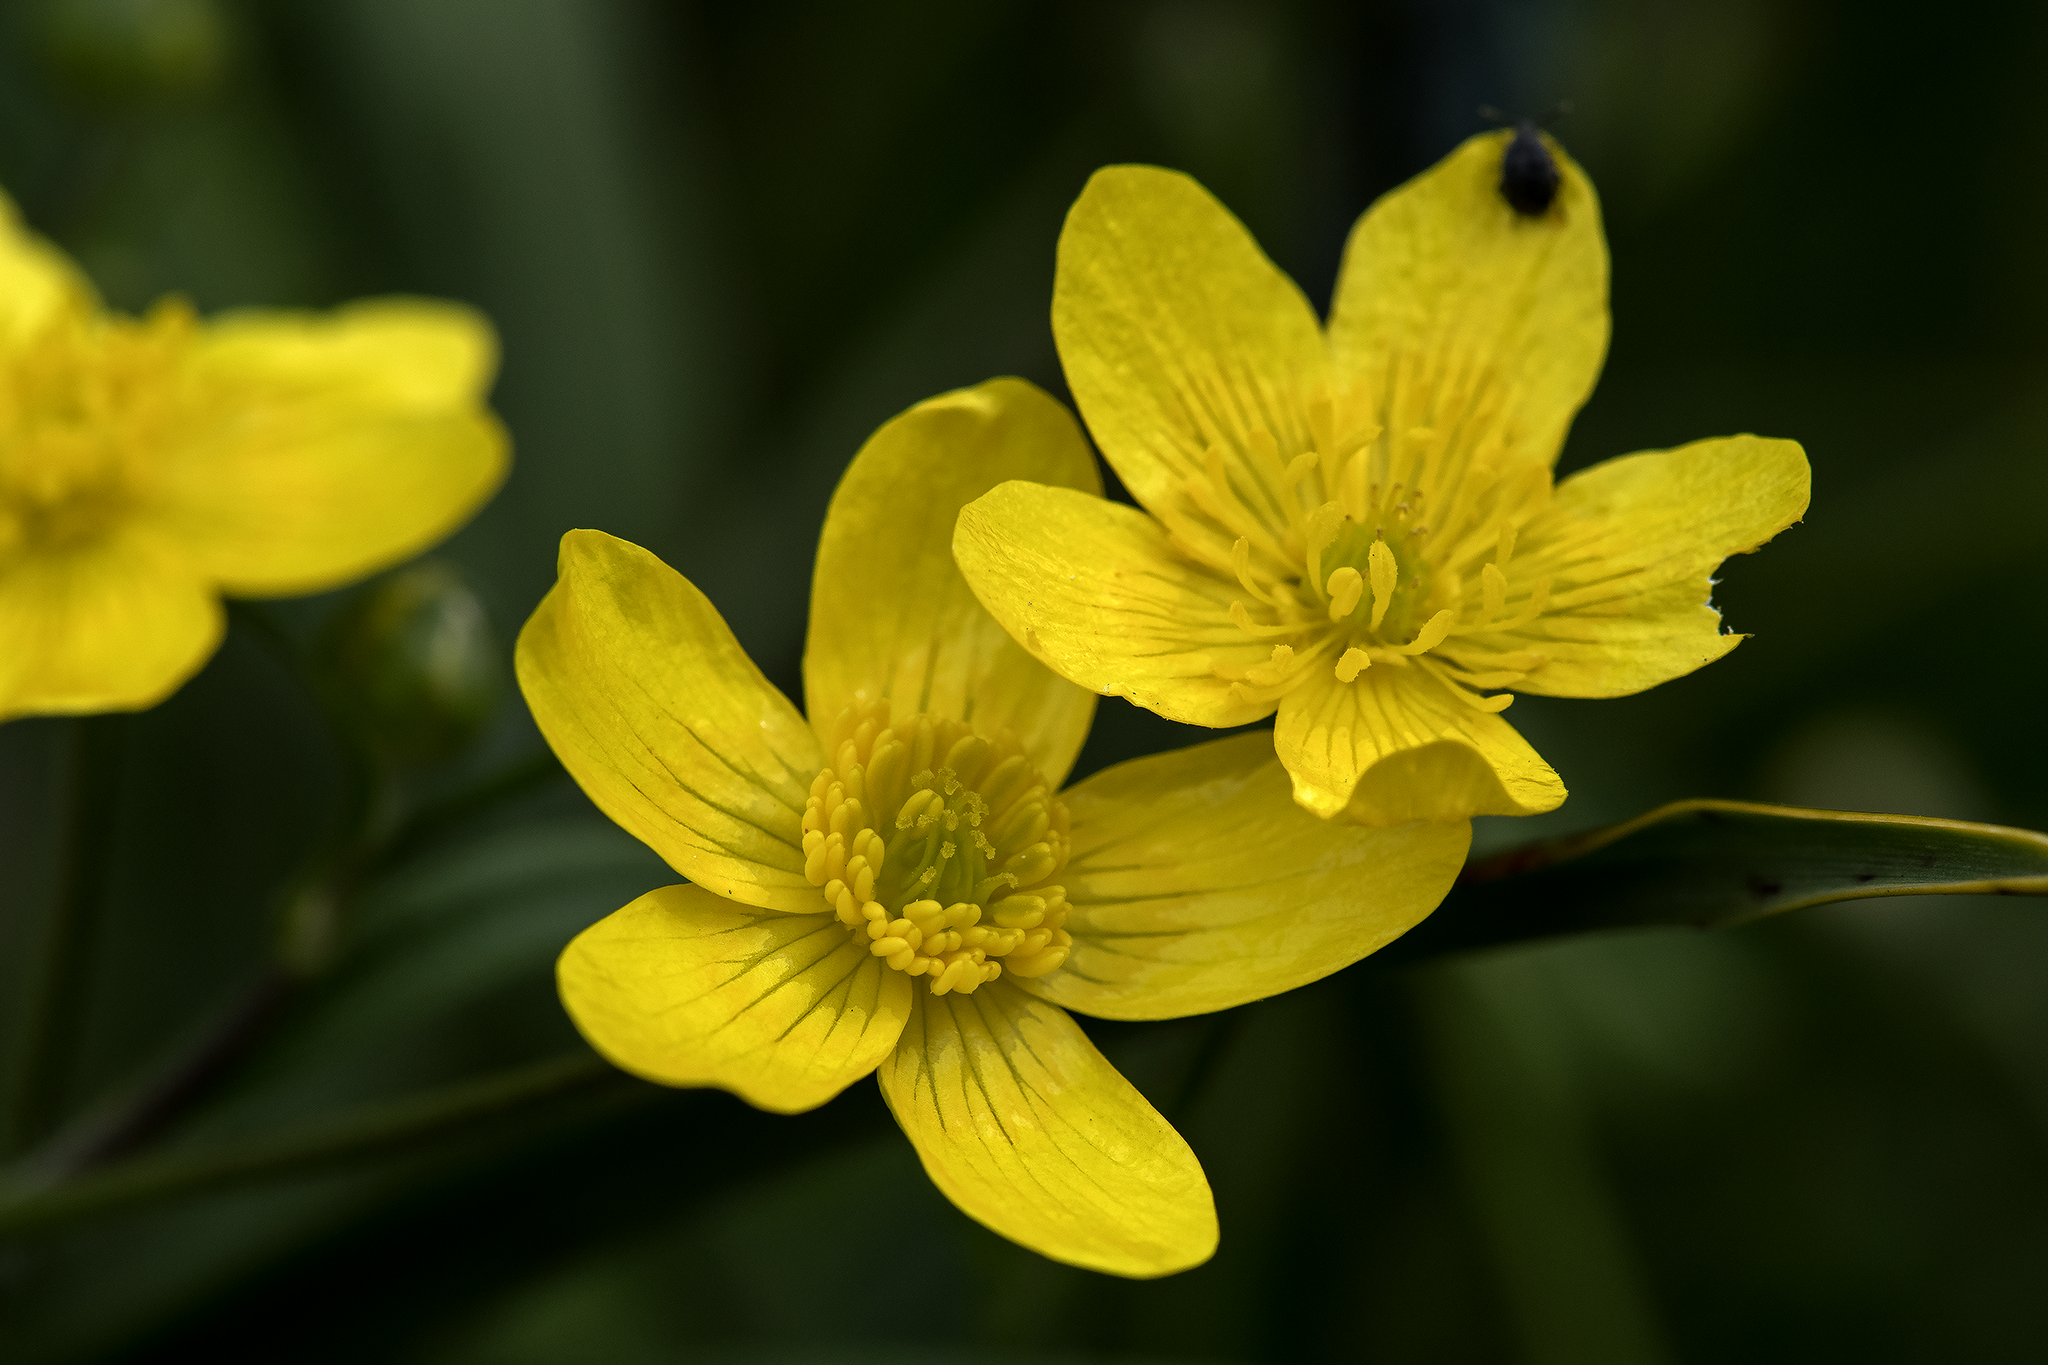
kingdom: Plantae
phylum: Tracheophyta
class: Magnoliopsida
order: Ranunculales
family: Ranunculaceae
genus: Ranunculus
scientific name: Ranunculus occidentalis
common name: Western buttercup
